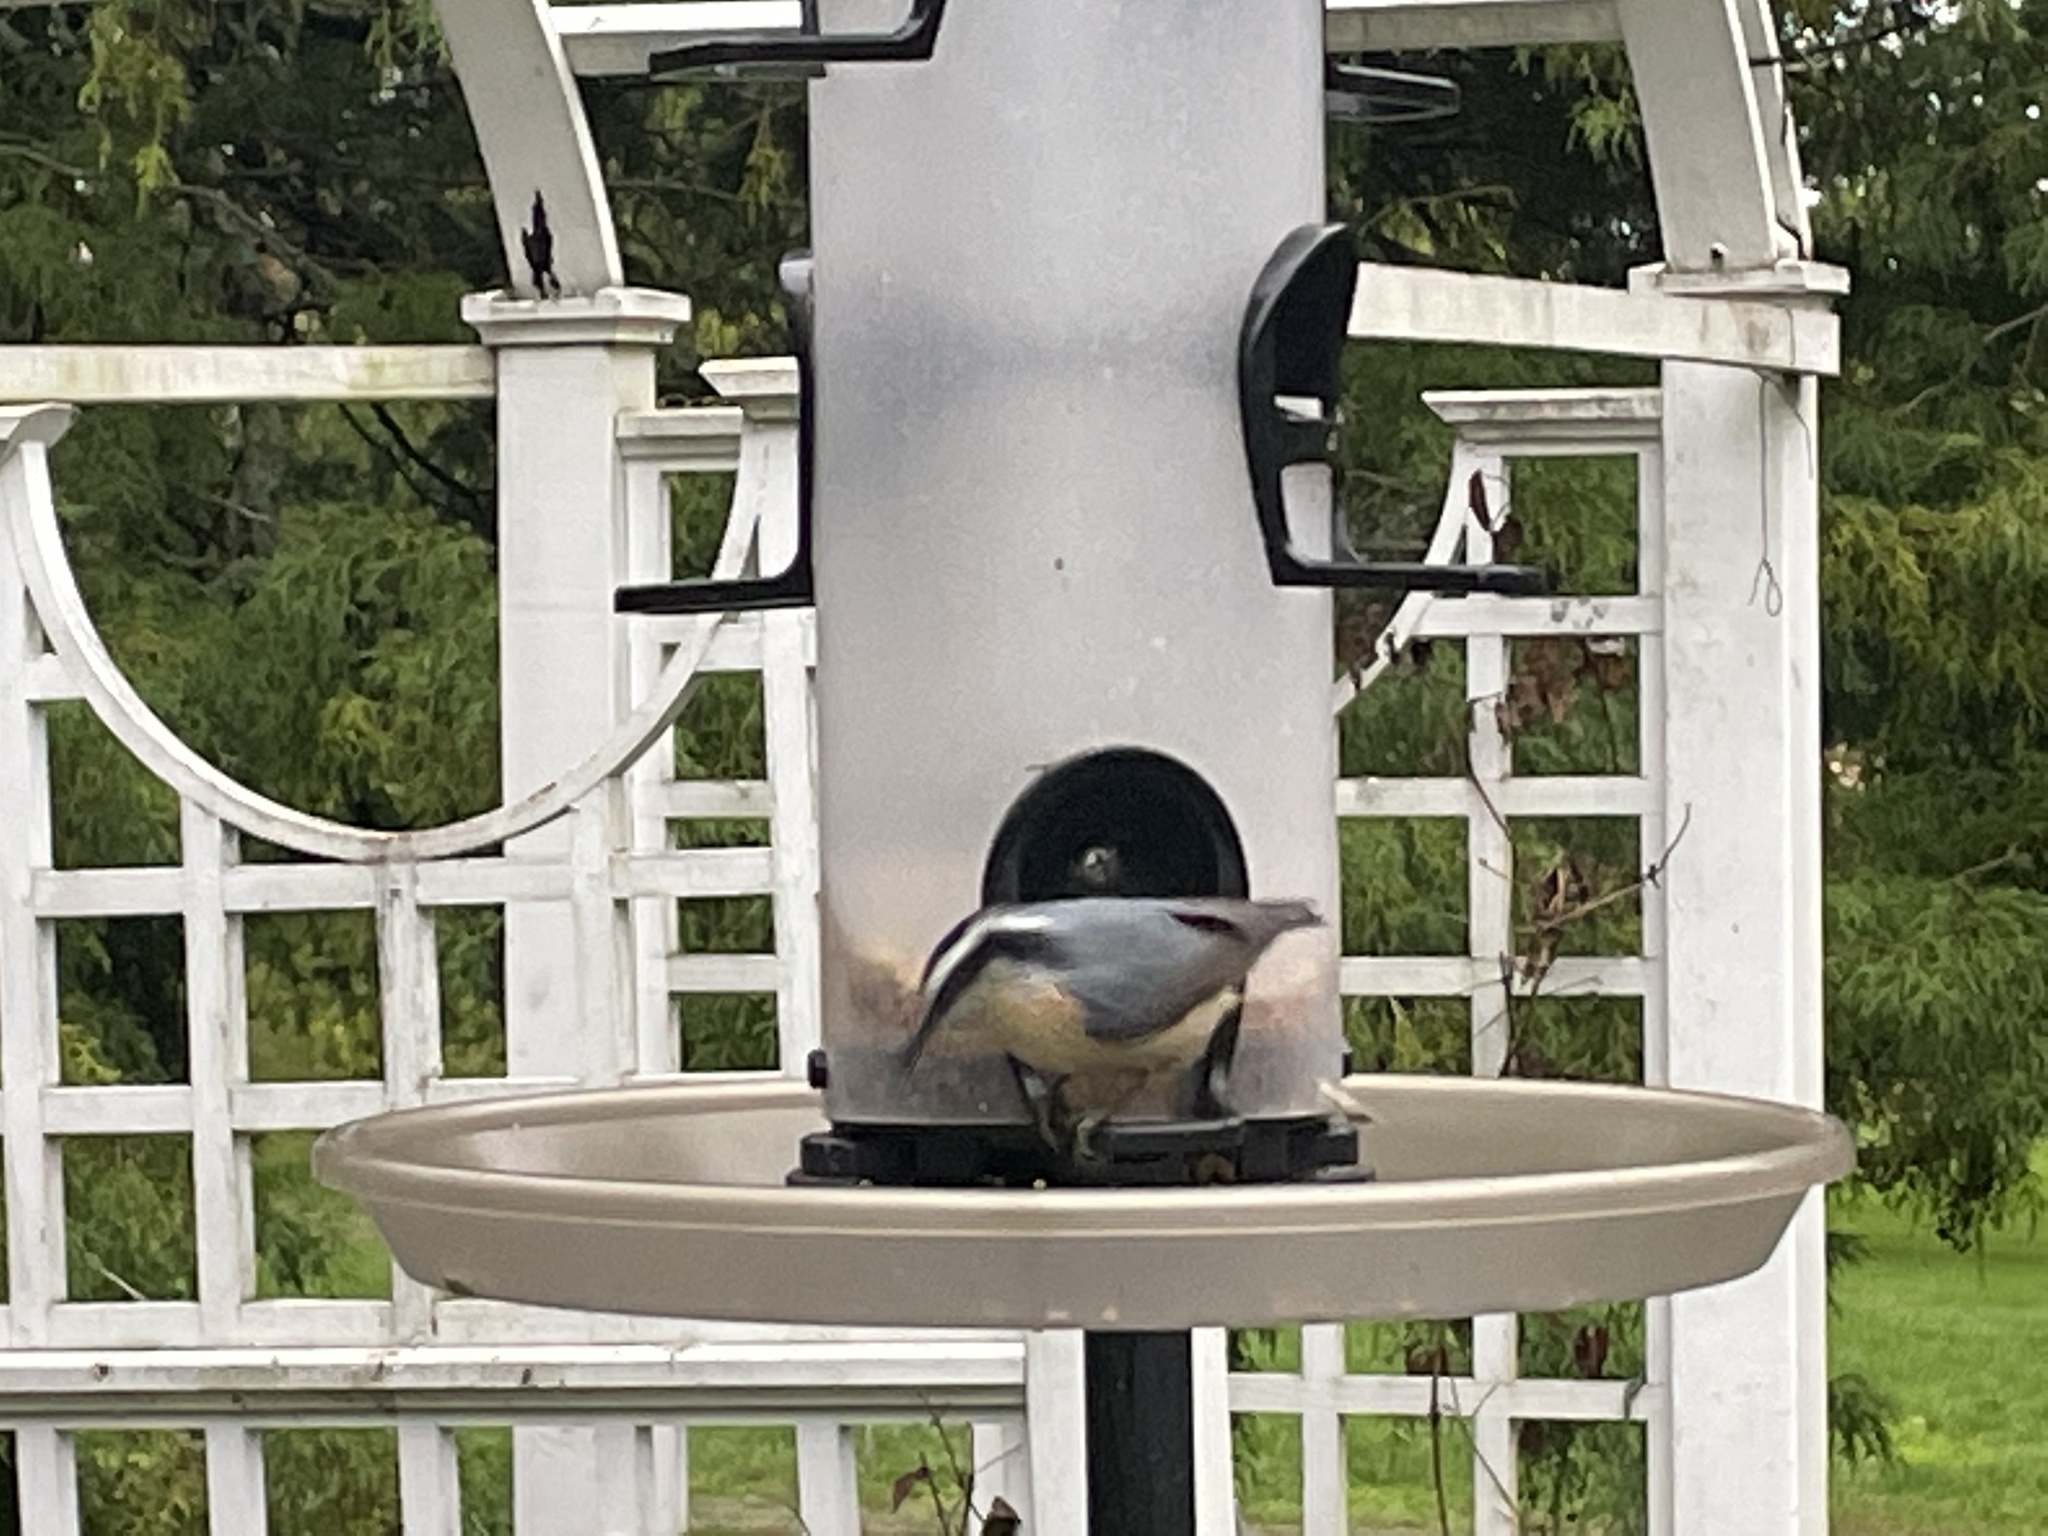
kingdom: Animalia
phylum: Chordata
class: Aves
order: Passeriformes
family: Sittidae
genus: Sitta
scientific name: Sitta canadensis
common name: Red-breasted nuthatch
